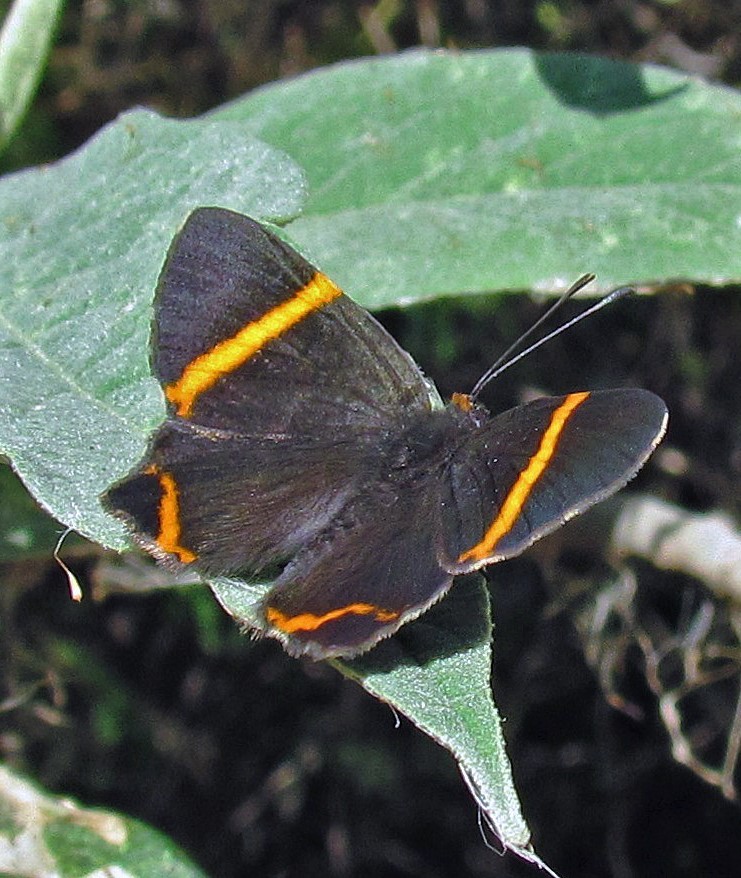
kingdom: Animalia
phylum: Arthropoda
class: Insecta
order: Lepidoptera
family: Riodinidae
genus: Riodina
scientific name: Riodina lysippoides
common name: Little dancer metalmark
